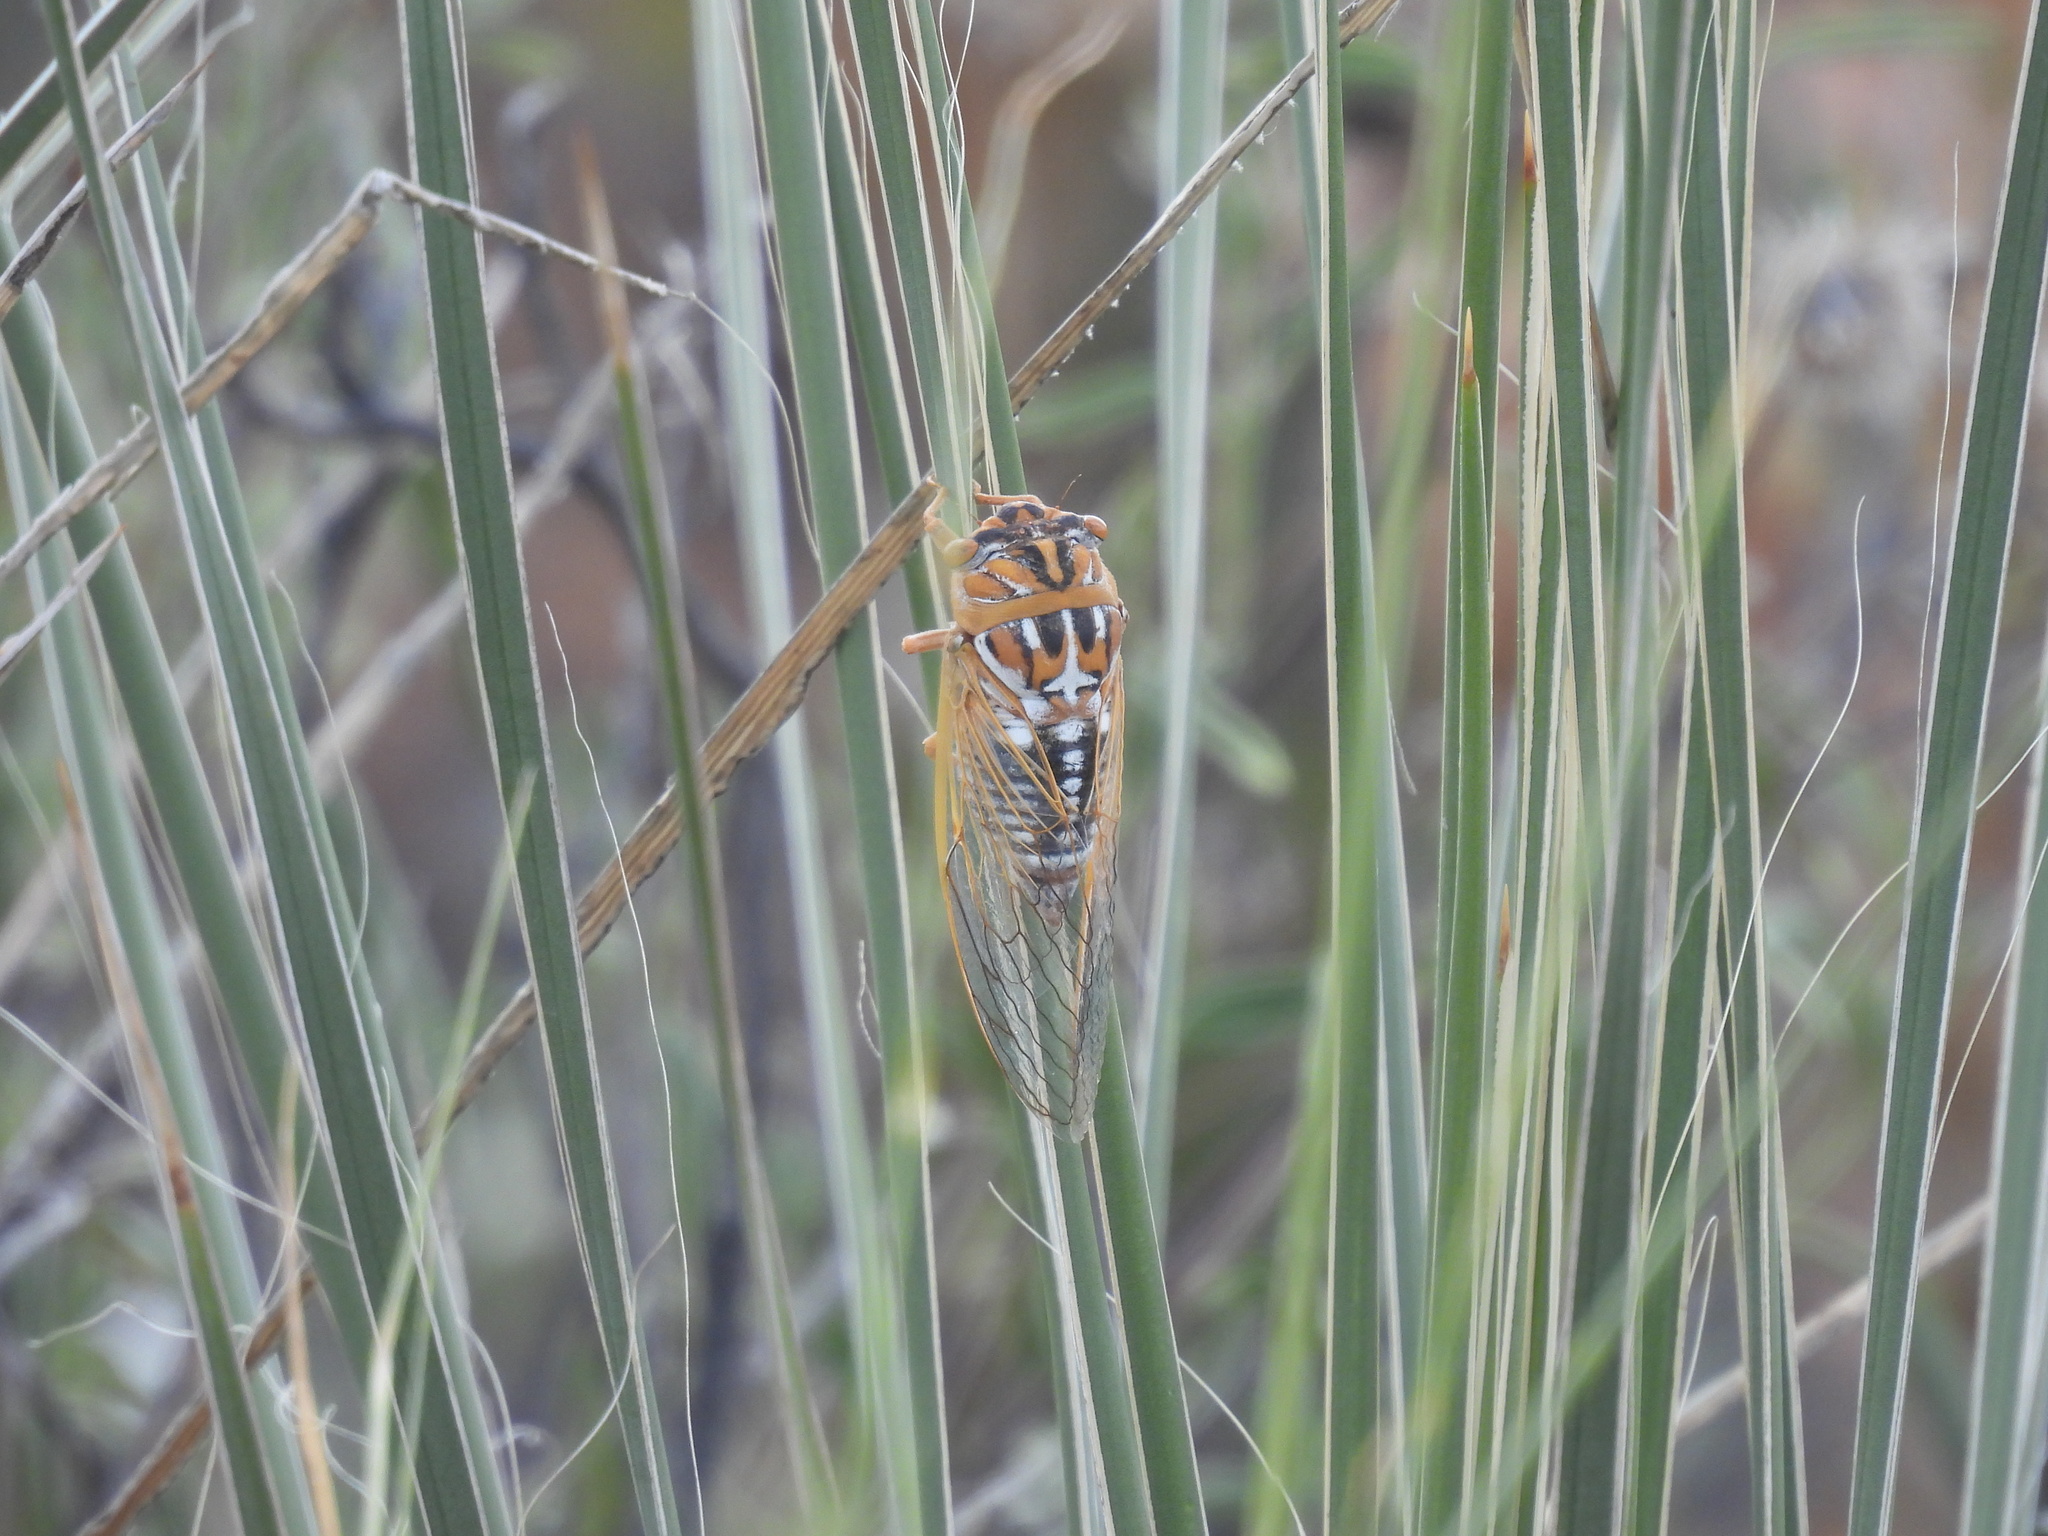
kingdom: Animalia
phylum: Arthropoda
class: Insecta
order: Hemiptera
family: Cicadidae
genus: Megatibicen
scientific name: Megatibicen harenosus
